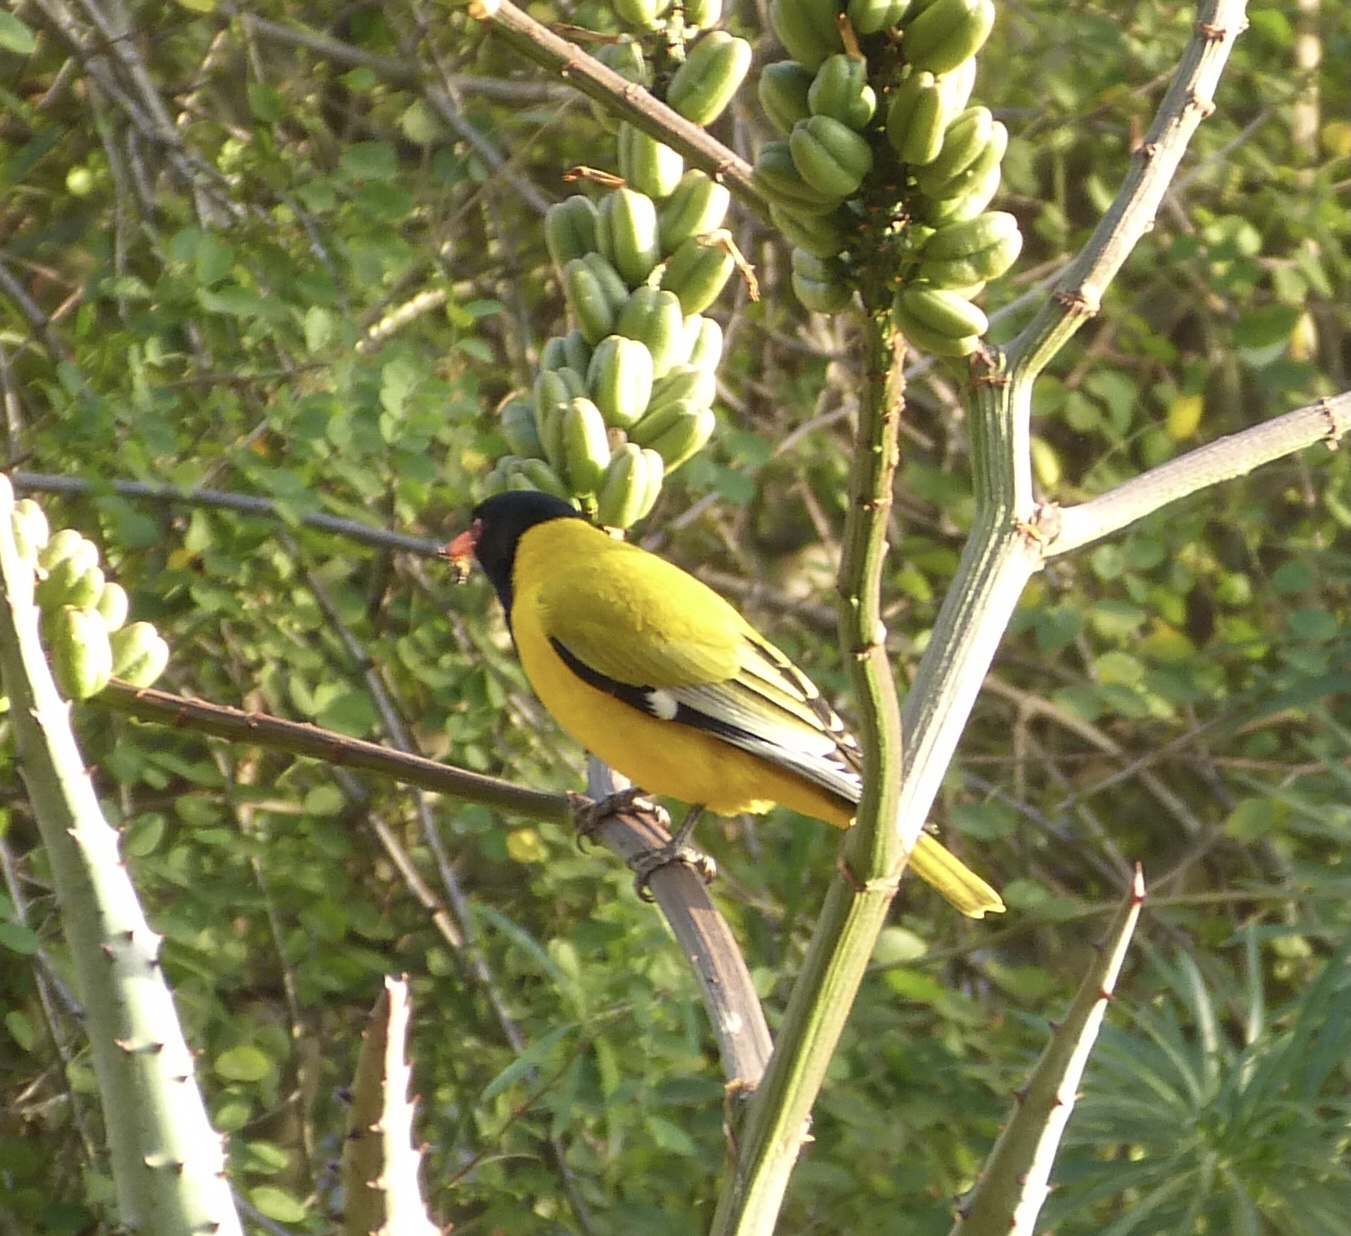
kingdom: Animalia
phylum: Chordata
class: Aves
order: Passeriformes
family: Oriolidae
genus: Oriolus
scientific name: Oriolus larvatus
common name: Black-headed oriole
